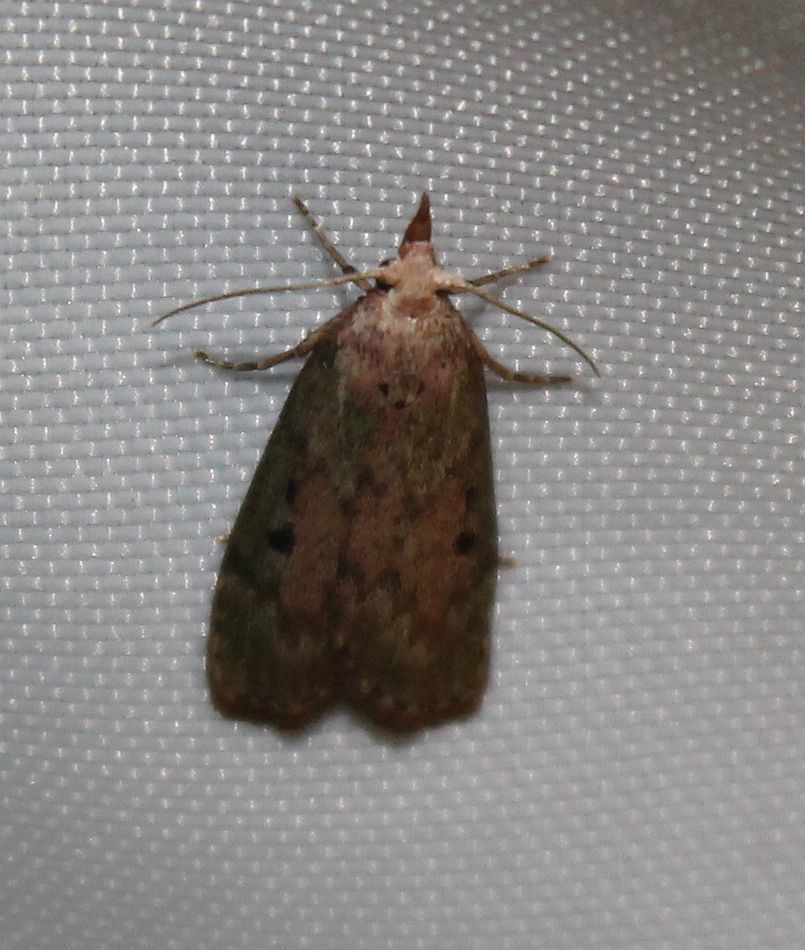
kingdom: Animalia
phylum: Arthropoda
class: Insecta
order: Lepidoptera
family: Pyralidae
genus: Aphomia
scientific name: Aphomia sociella
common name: Bee moth
